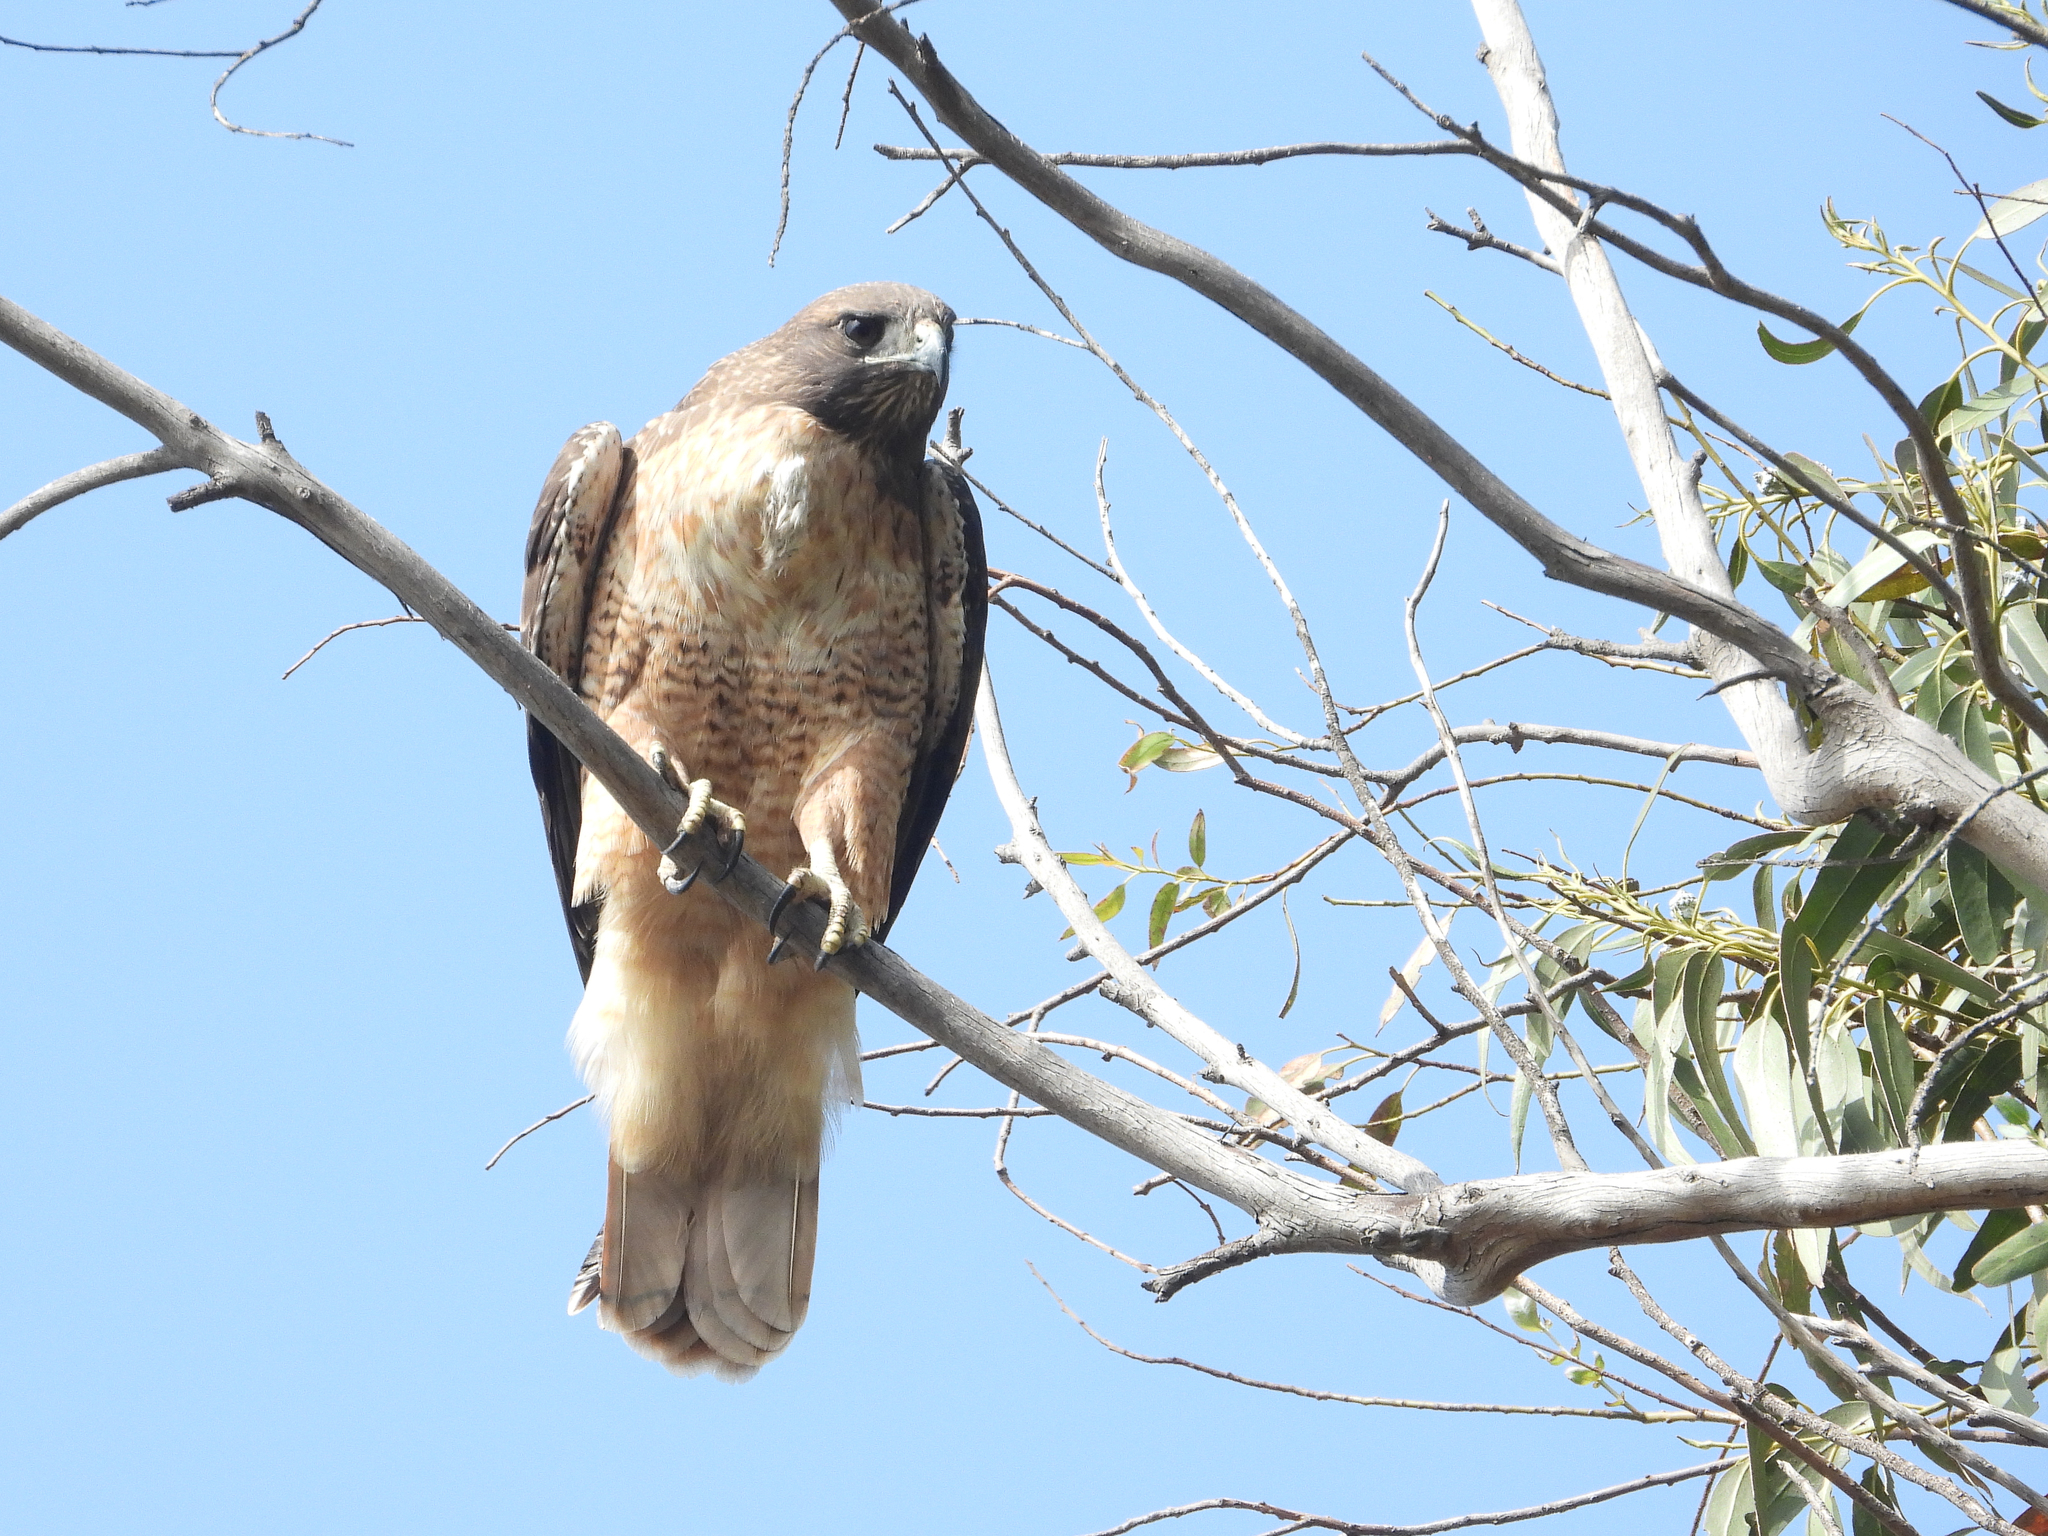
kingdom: Animalia
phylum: Chordata
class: Aves
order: Accipitriformes
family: Accipitridae
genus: Buteo
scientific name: Buteo jamaicensis
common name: Red-tailed hawk
